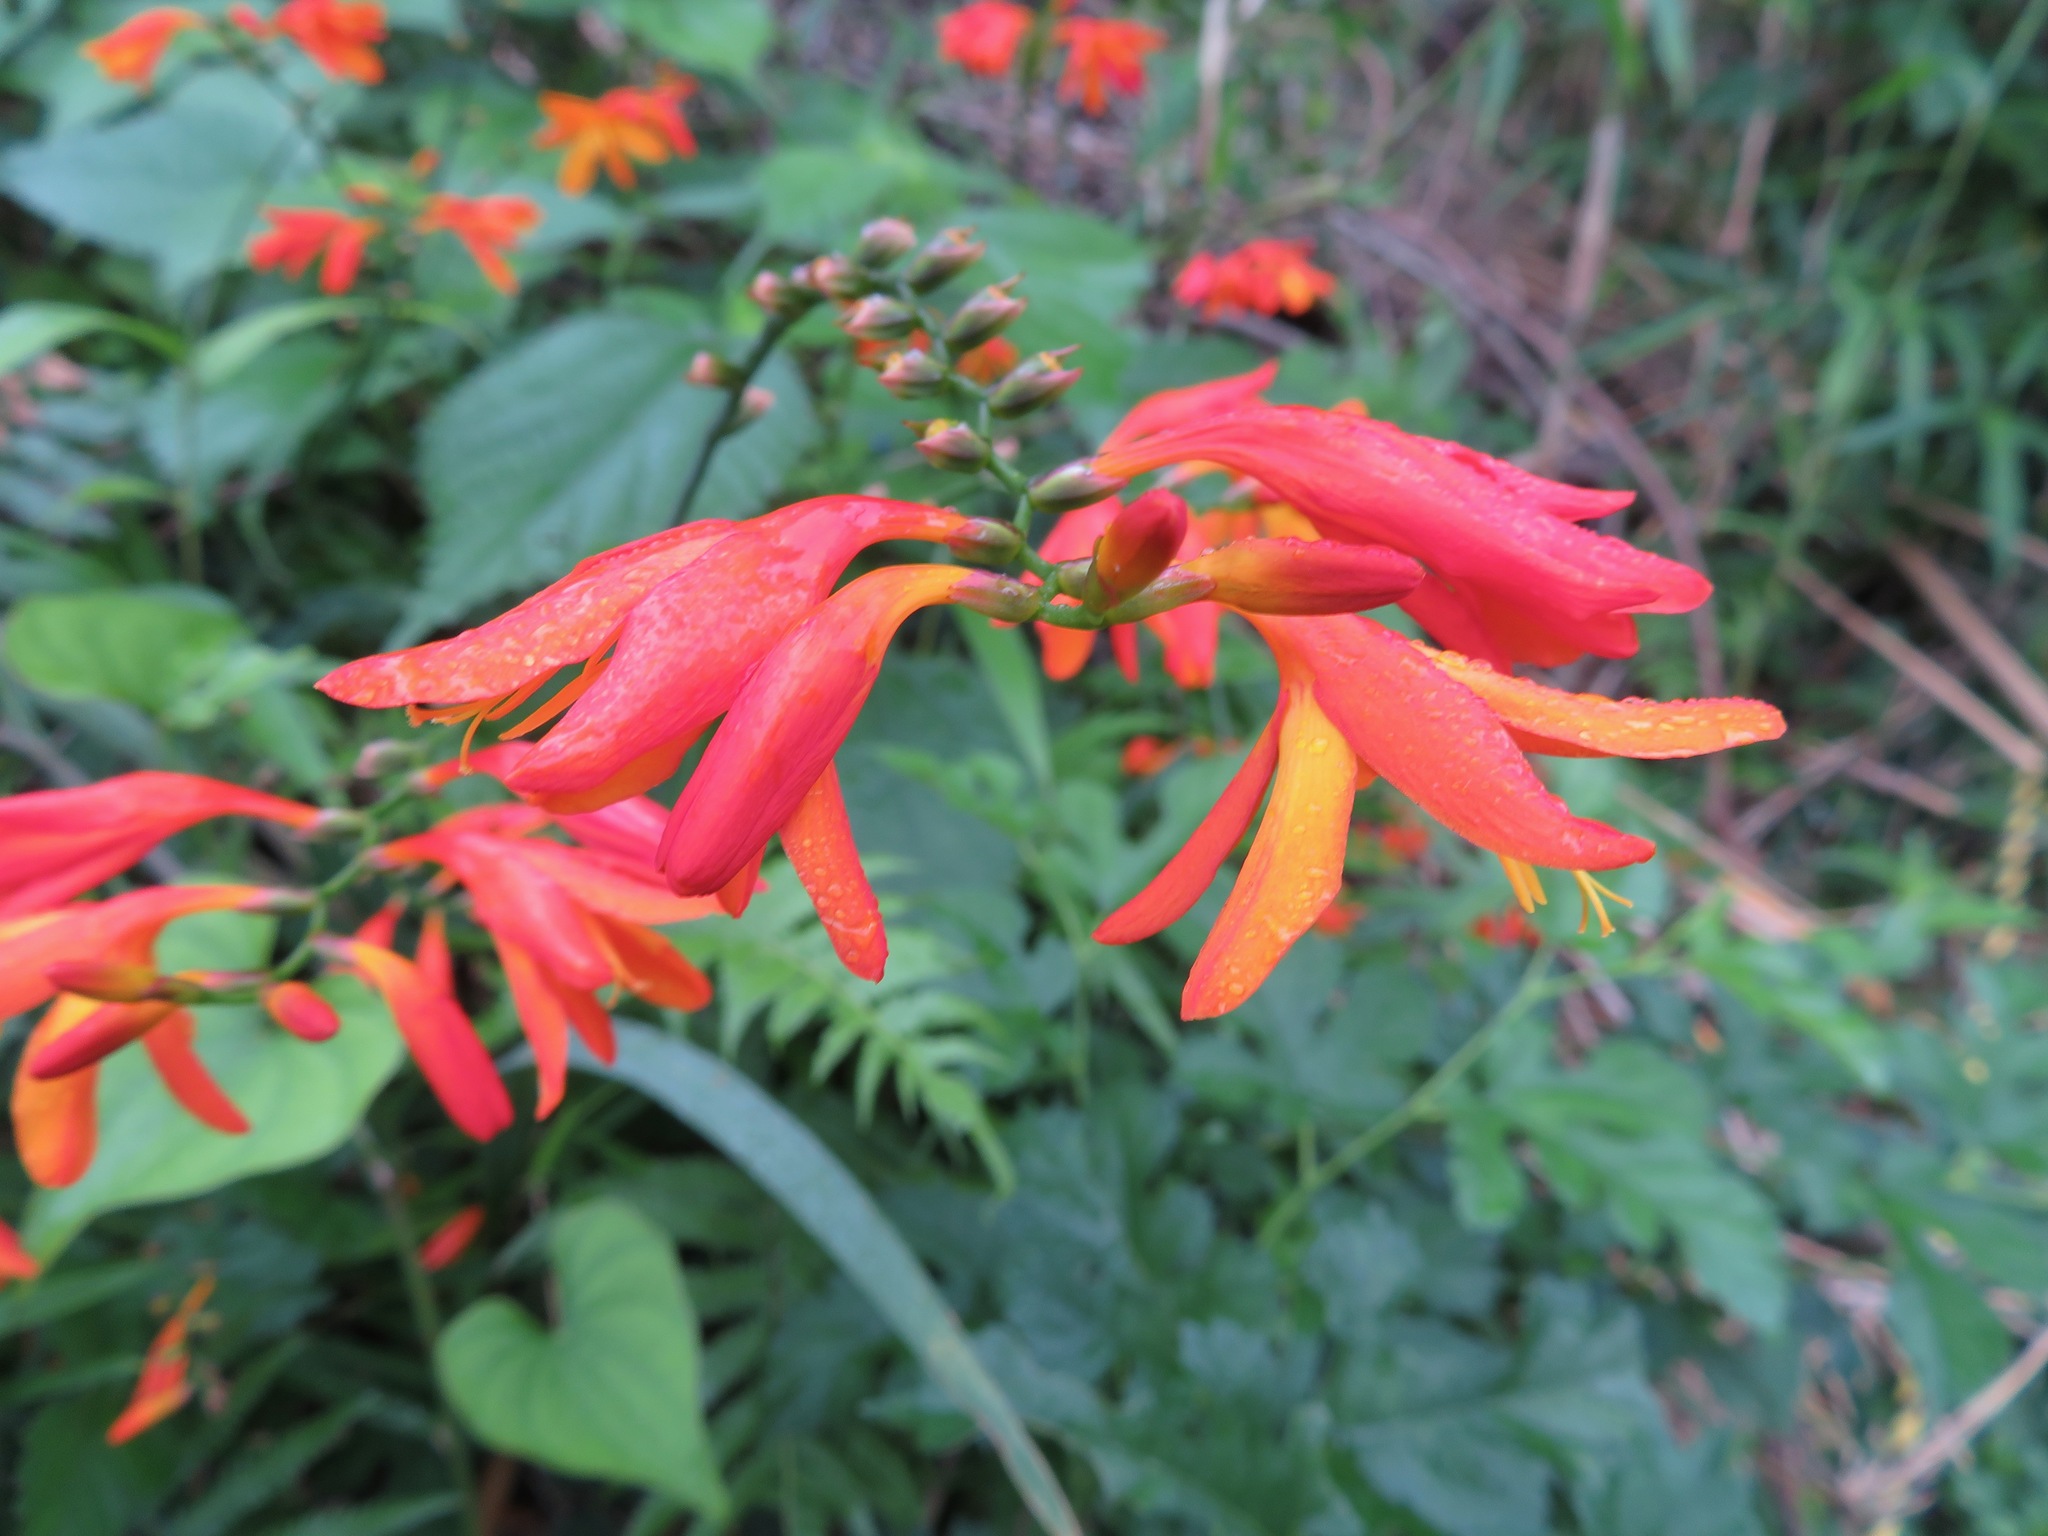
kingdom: Plantae
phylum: Tracheophyta
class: Liliopsida
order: Asparagales
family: Iridaceae
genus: Crocosmia
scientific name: Crocosmia crocosmiiflora
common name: Montbretia
